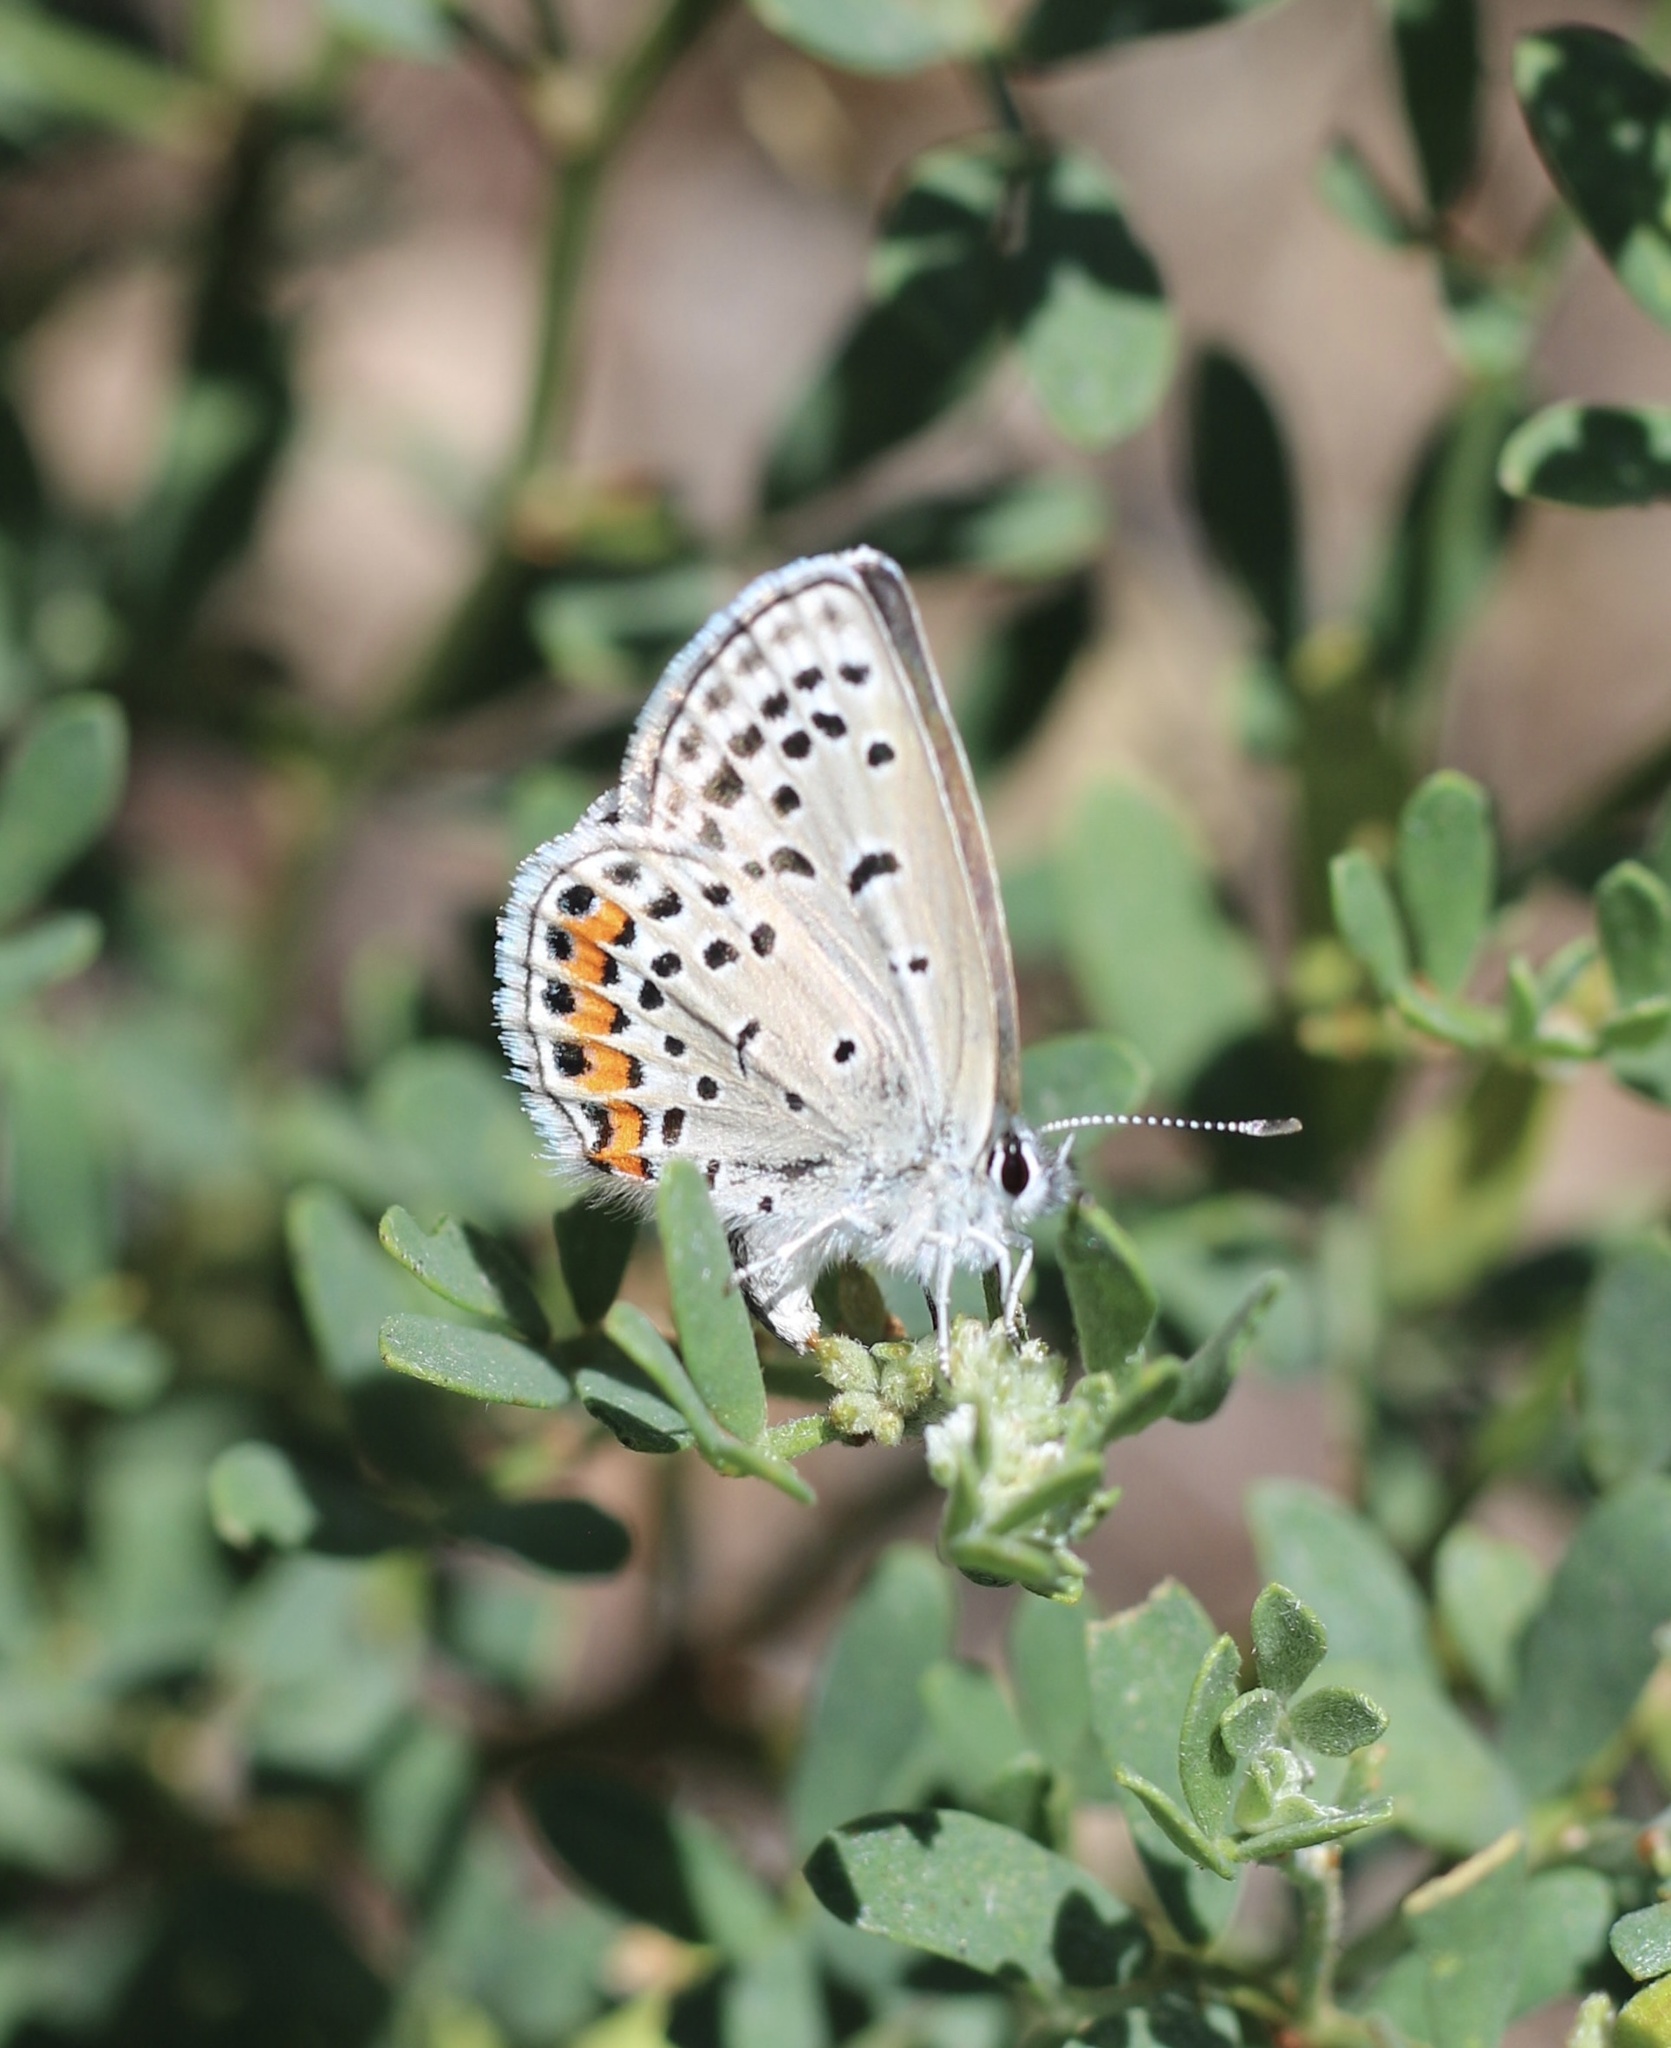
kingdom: Animalia
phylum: Arthropoda
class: Insecta
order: Lepidoptera
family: Lycaenidae
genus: Icaricia
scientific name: Icaricia acmon
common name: Acmon blue
